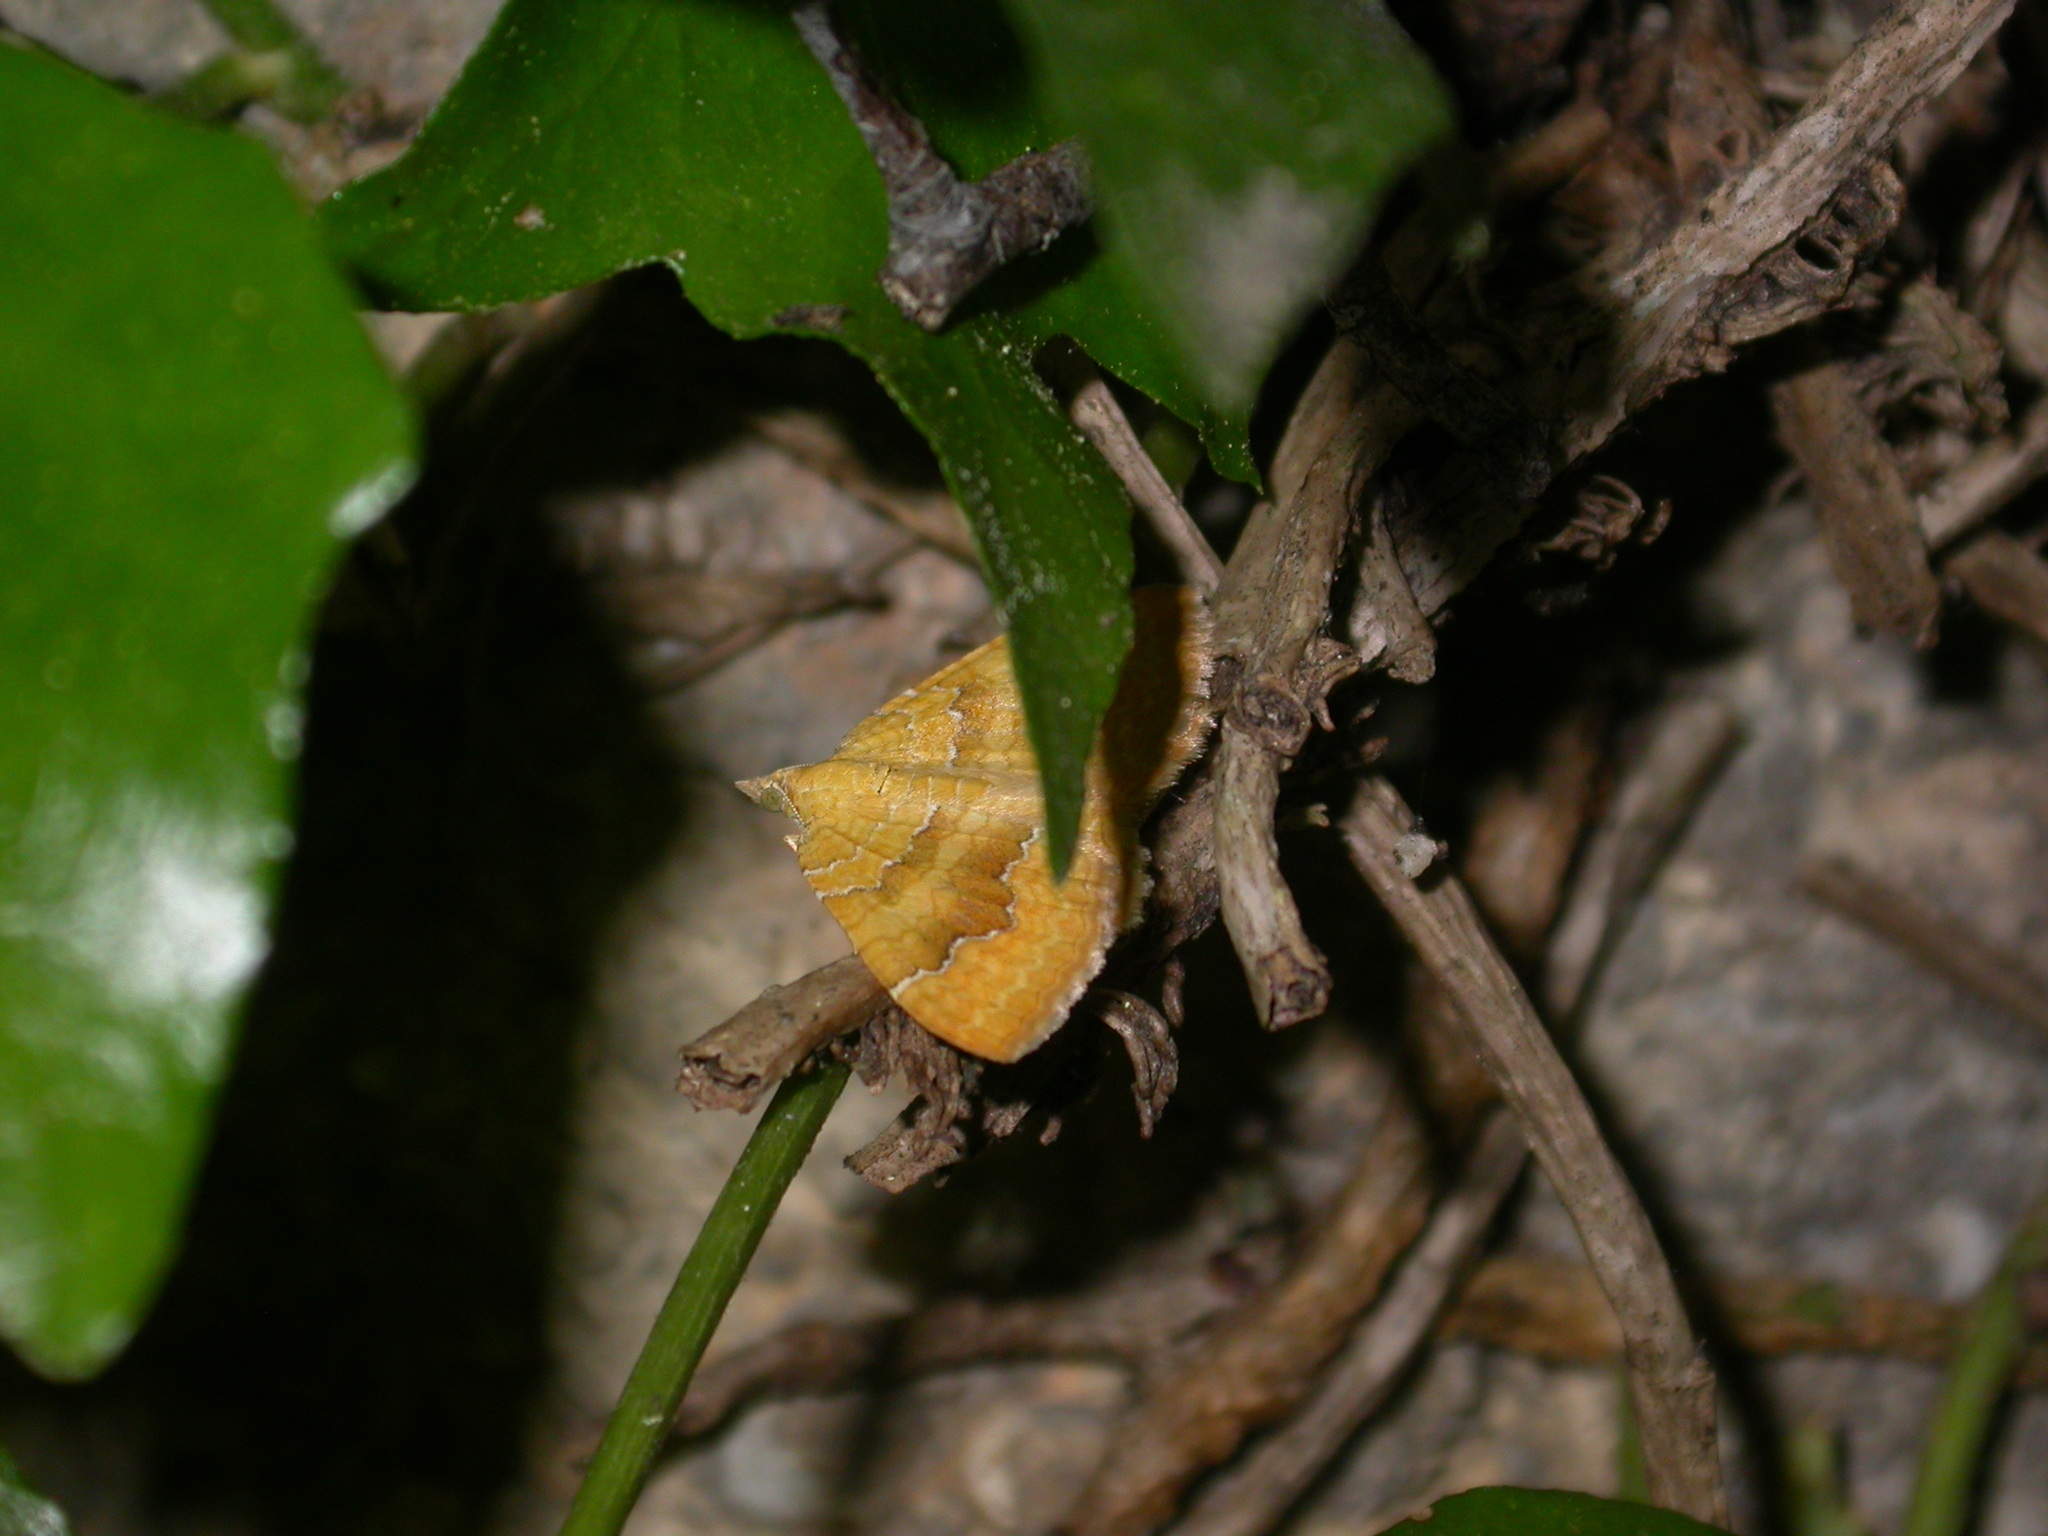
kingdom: Animalia
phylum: Arthropoda
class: Insecta
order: Lepidoptera
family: Geometridae
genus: Camptogramma
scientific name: Camptogramma bilineata
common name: Yellow shell
